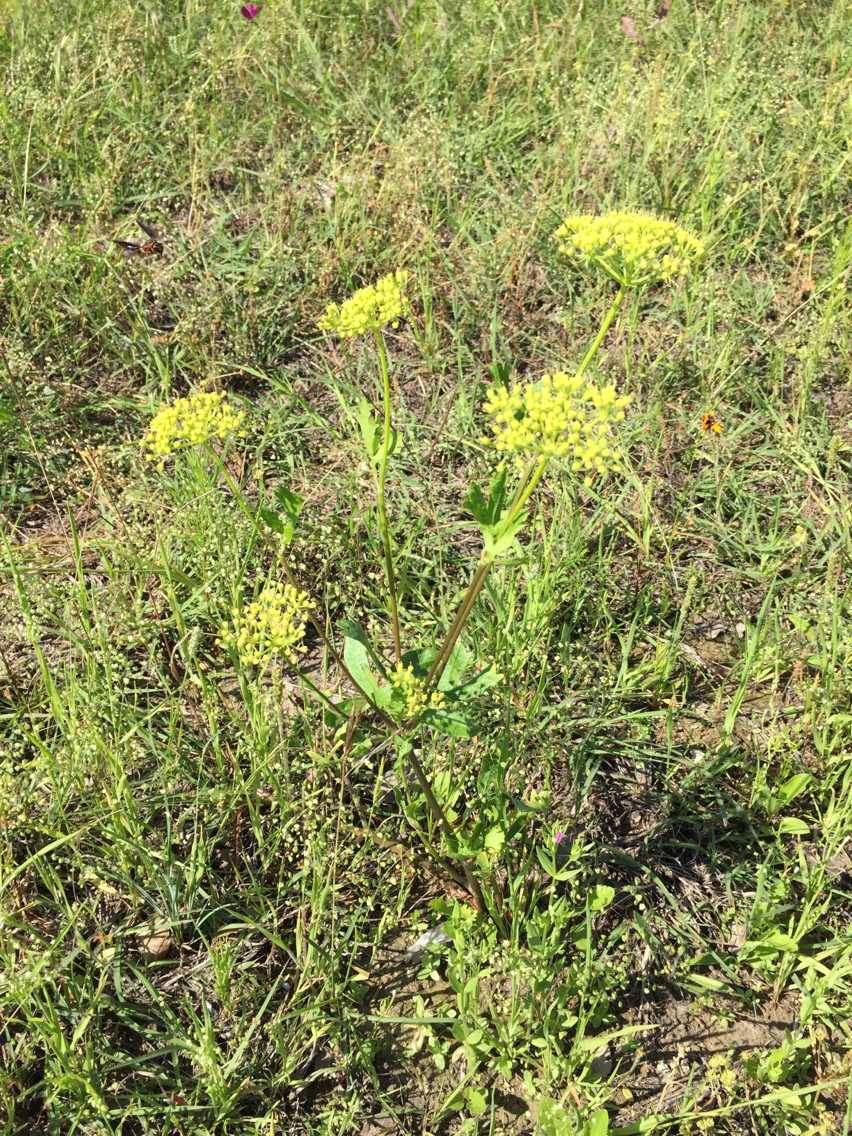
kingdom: Plantae
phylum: Tracheophyta
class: Magnoliopsida
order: Apiales
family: Apiaceae
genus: Polytaenia
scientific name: Polytaenia texana
